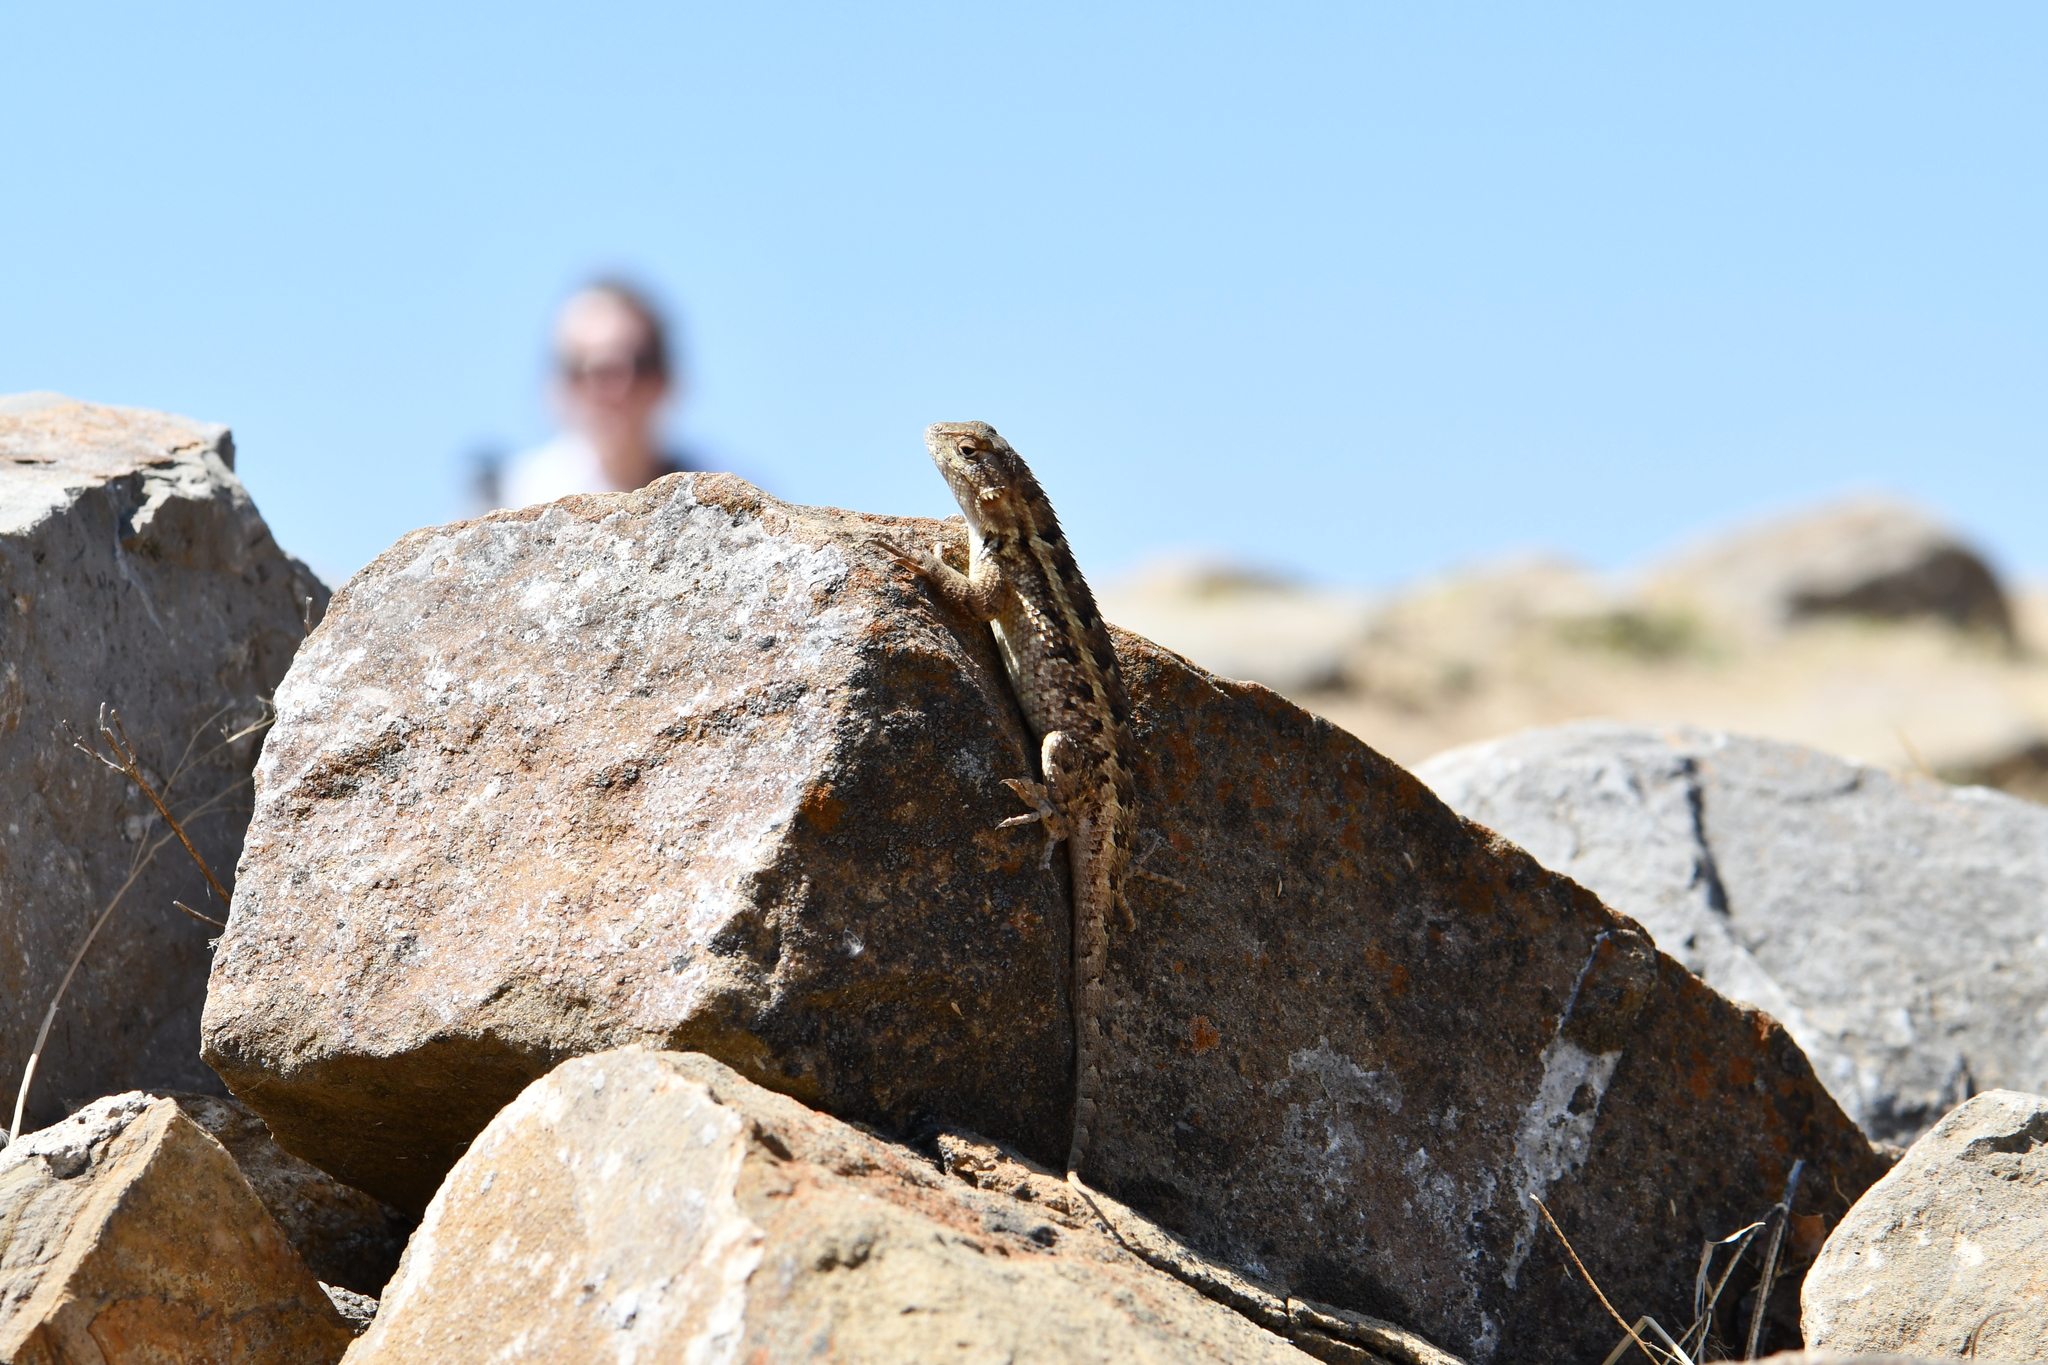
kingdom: Animalia
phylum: Chordata
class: Squamata
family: Phrynosomatidae
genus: Sceloporus
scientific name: Sceloporus spinosus
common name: Blue-spotted spiny lizard [caeruleopunctatus]
